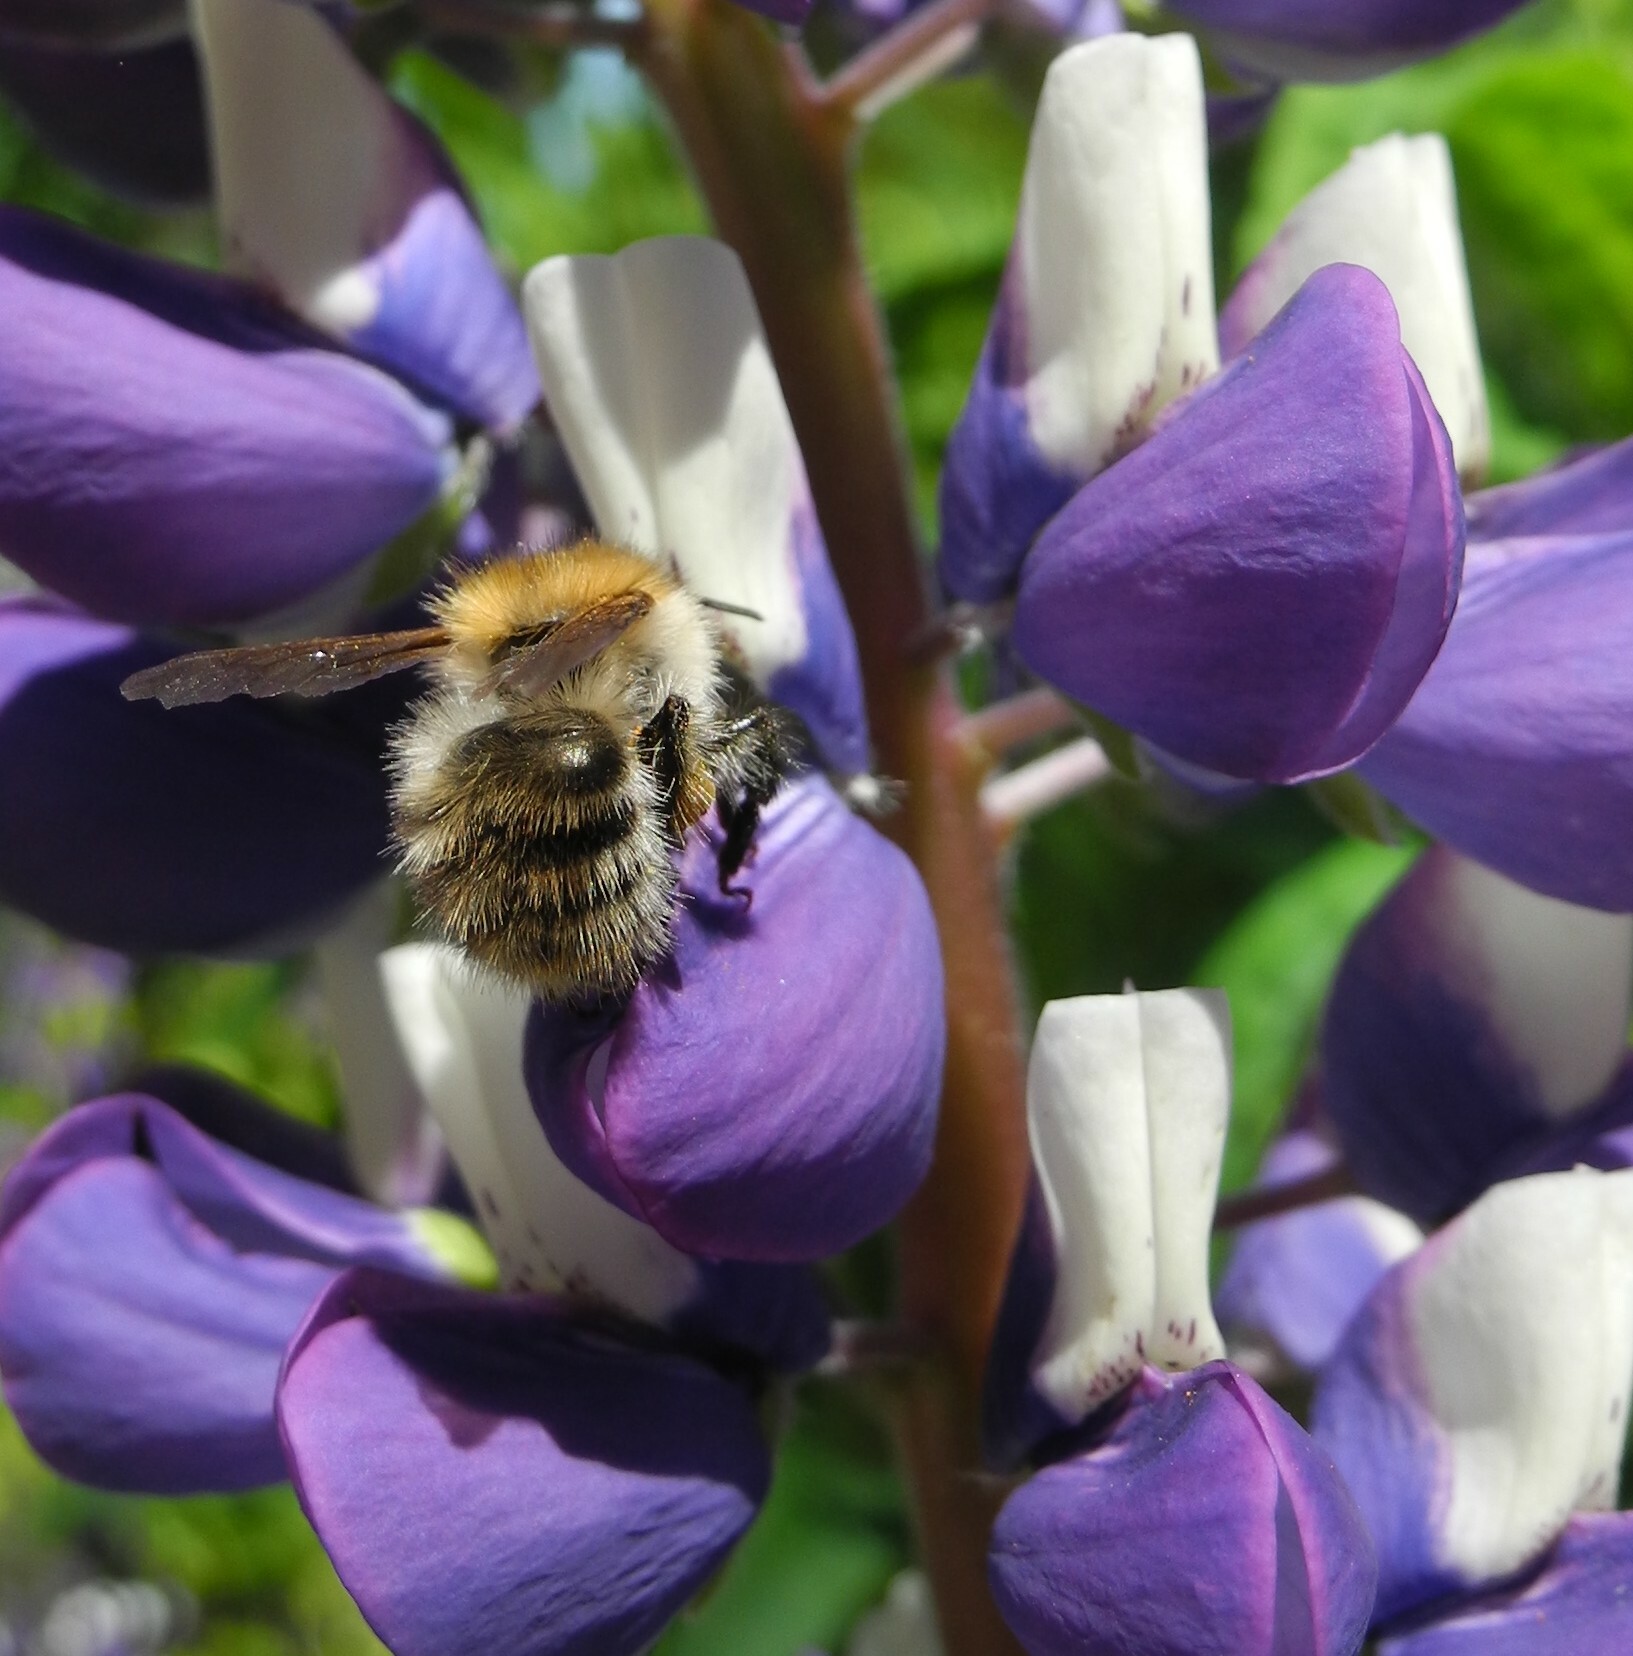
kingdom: Animalia
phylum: Arthropoda
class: Insecta
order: Hymenoptera
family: Apidae
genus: Bombus
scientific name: Bombus pascuorum
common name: Common carder bee
